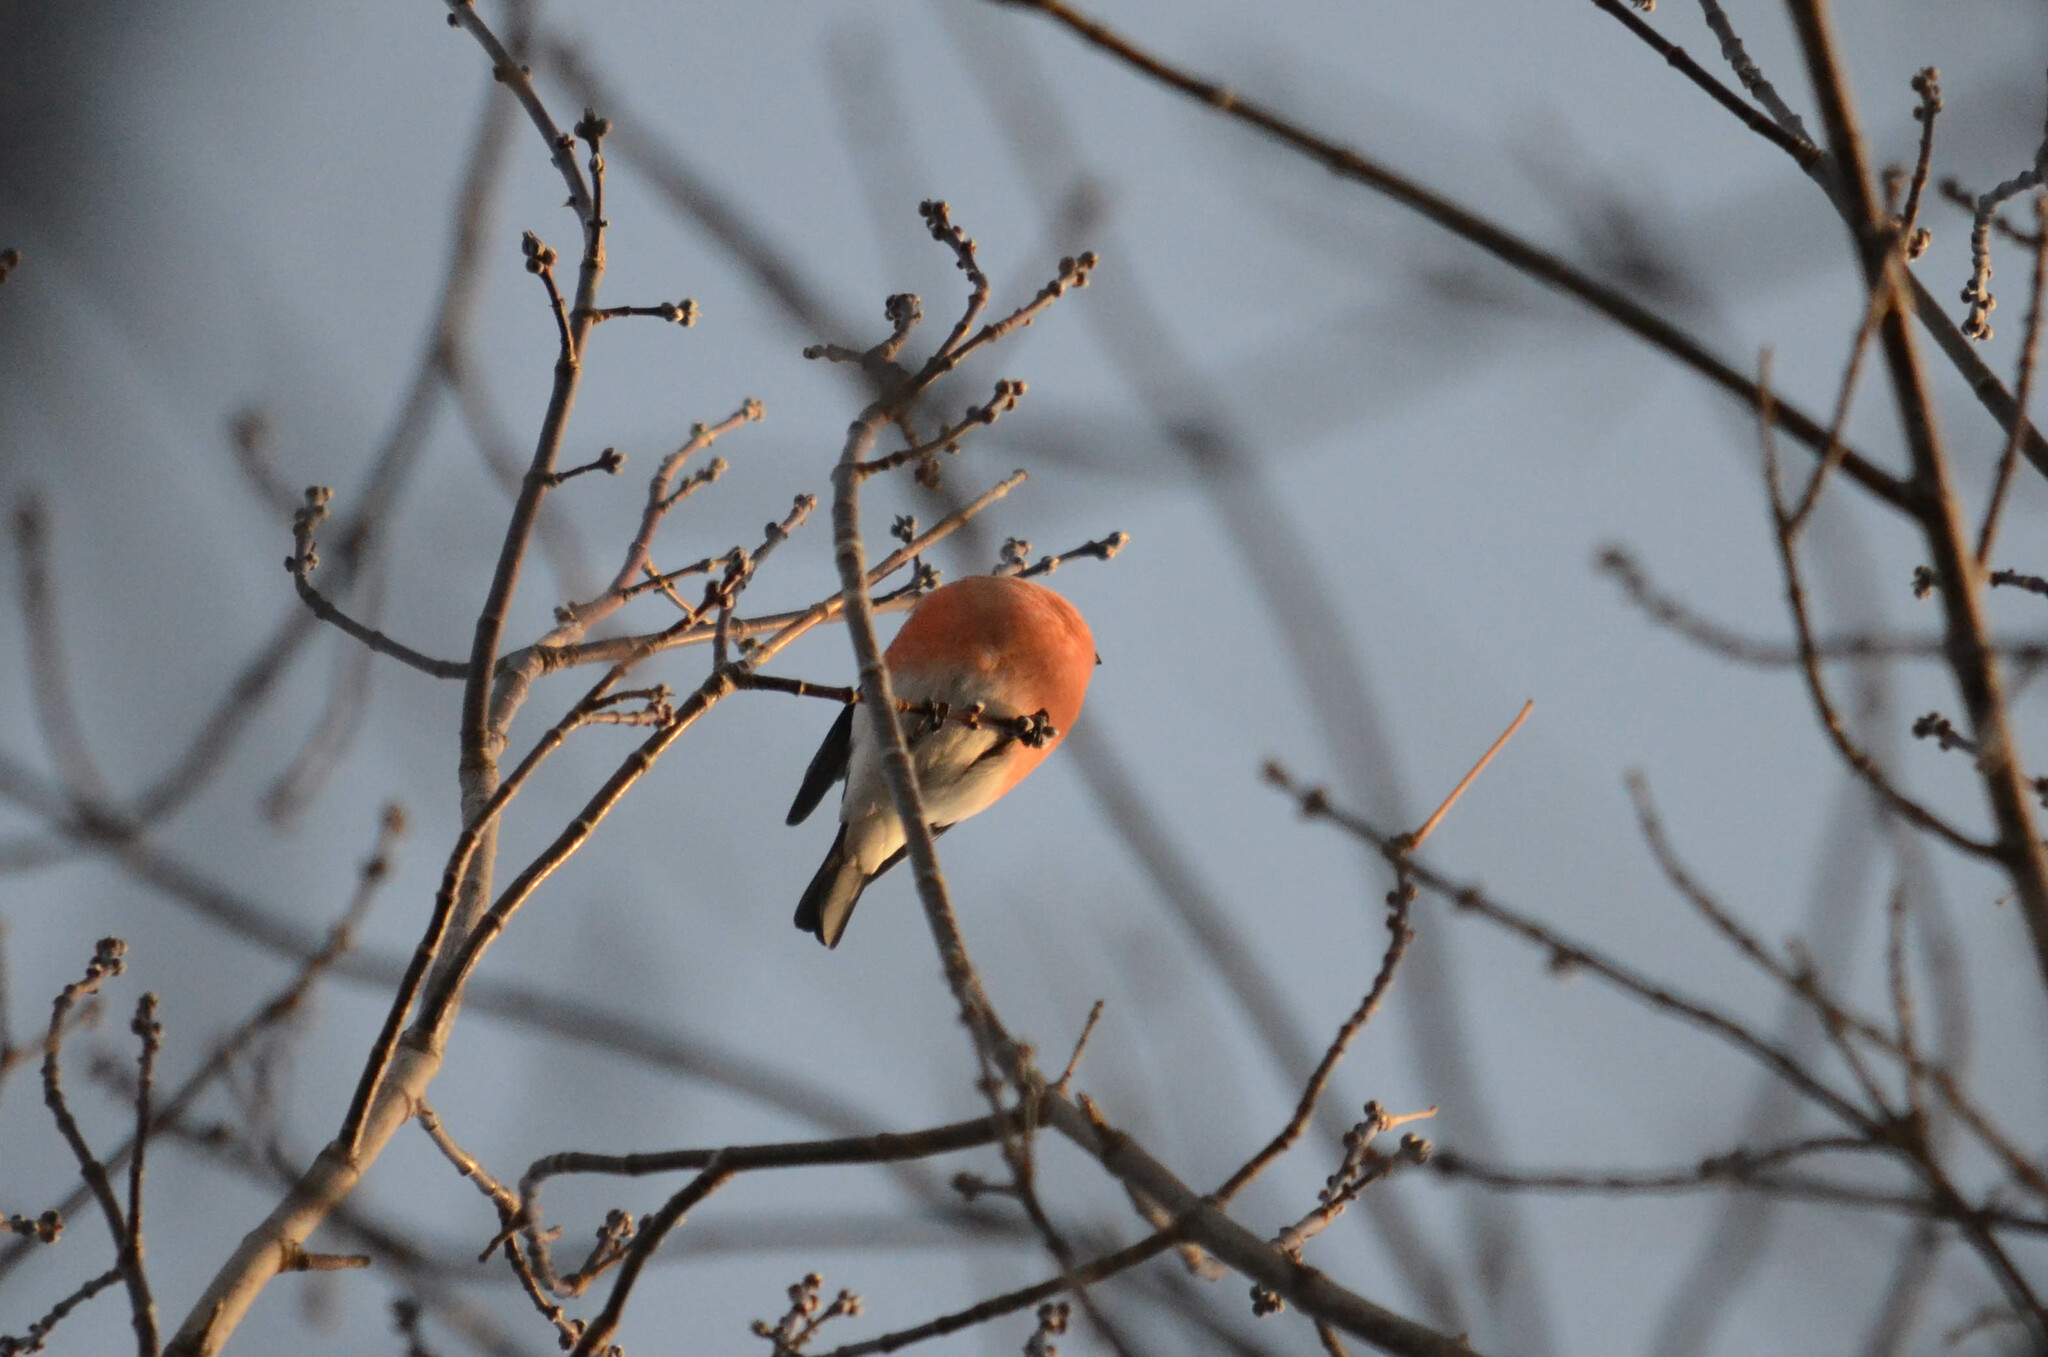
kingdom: Animalia
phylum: Chordata
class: Aves
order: Passeriformes
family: Fringillidae
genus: Pyrrhula
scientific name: Pyrrhula pyrrhula
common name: Eurasian bullfinch
